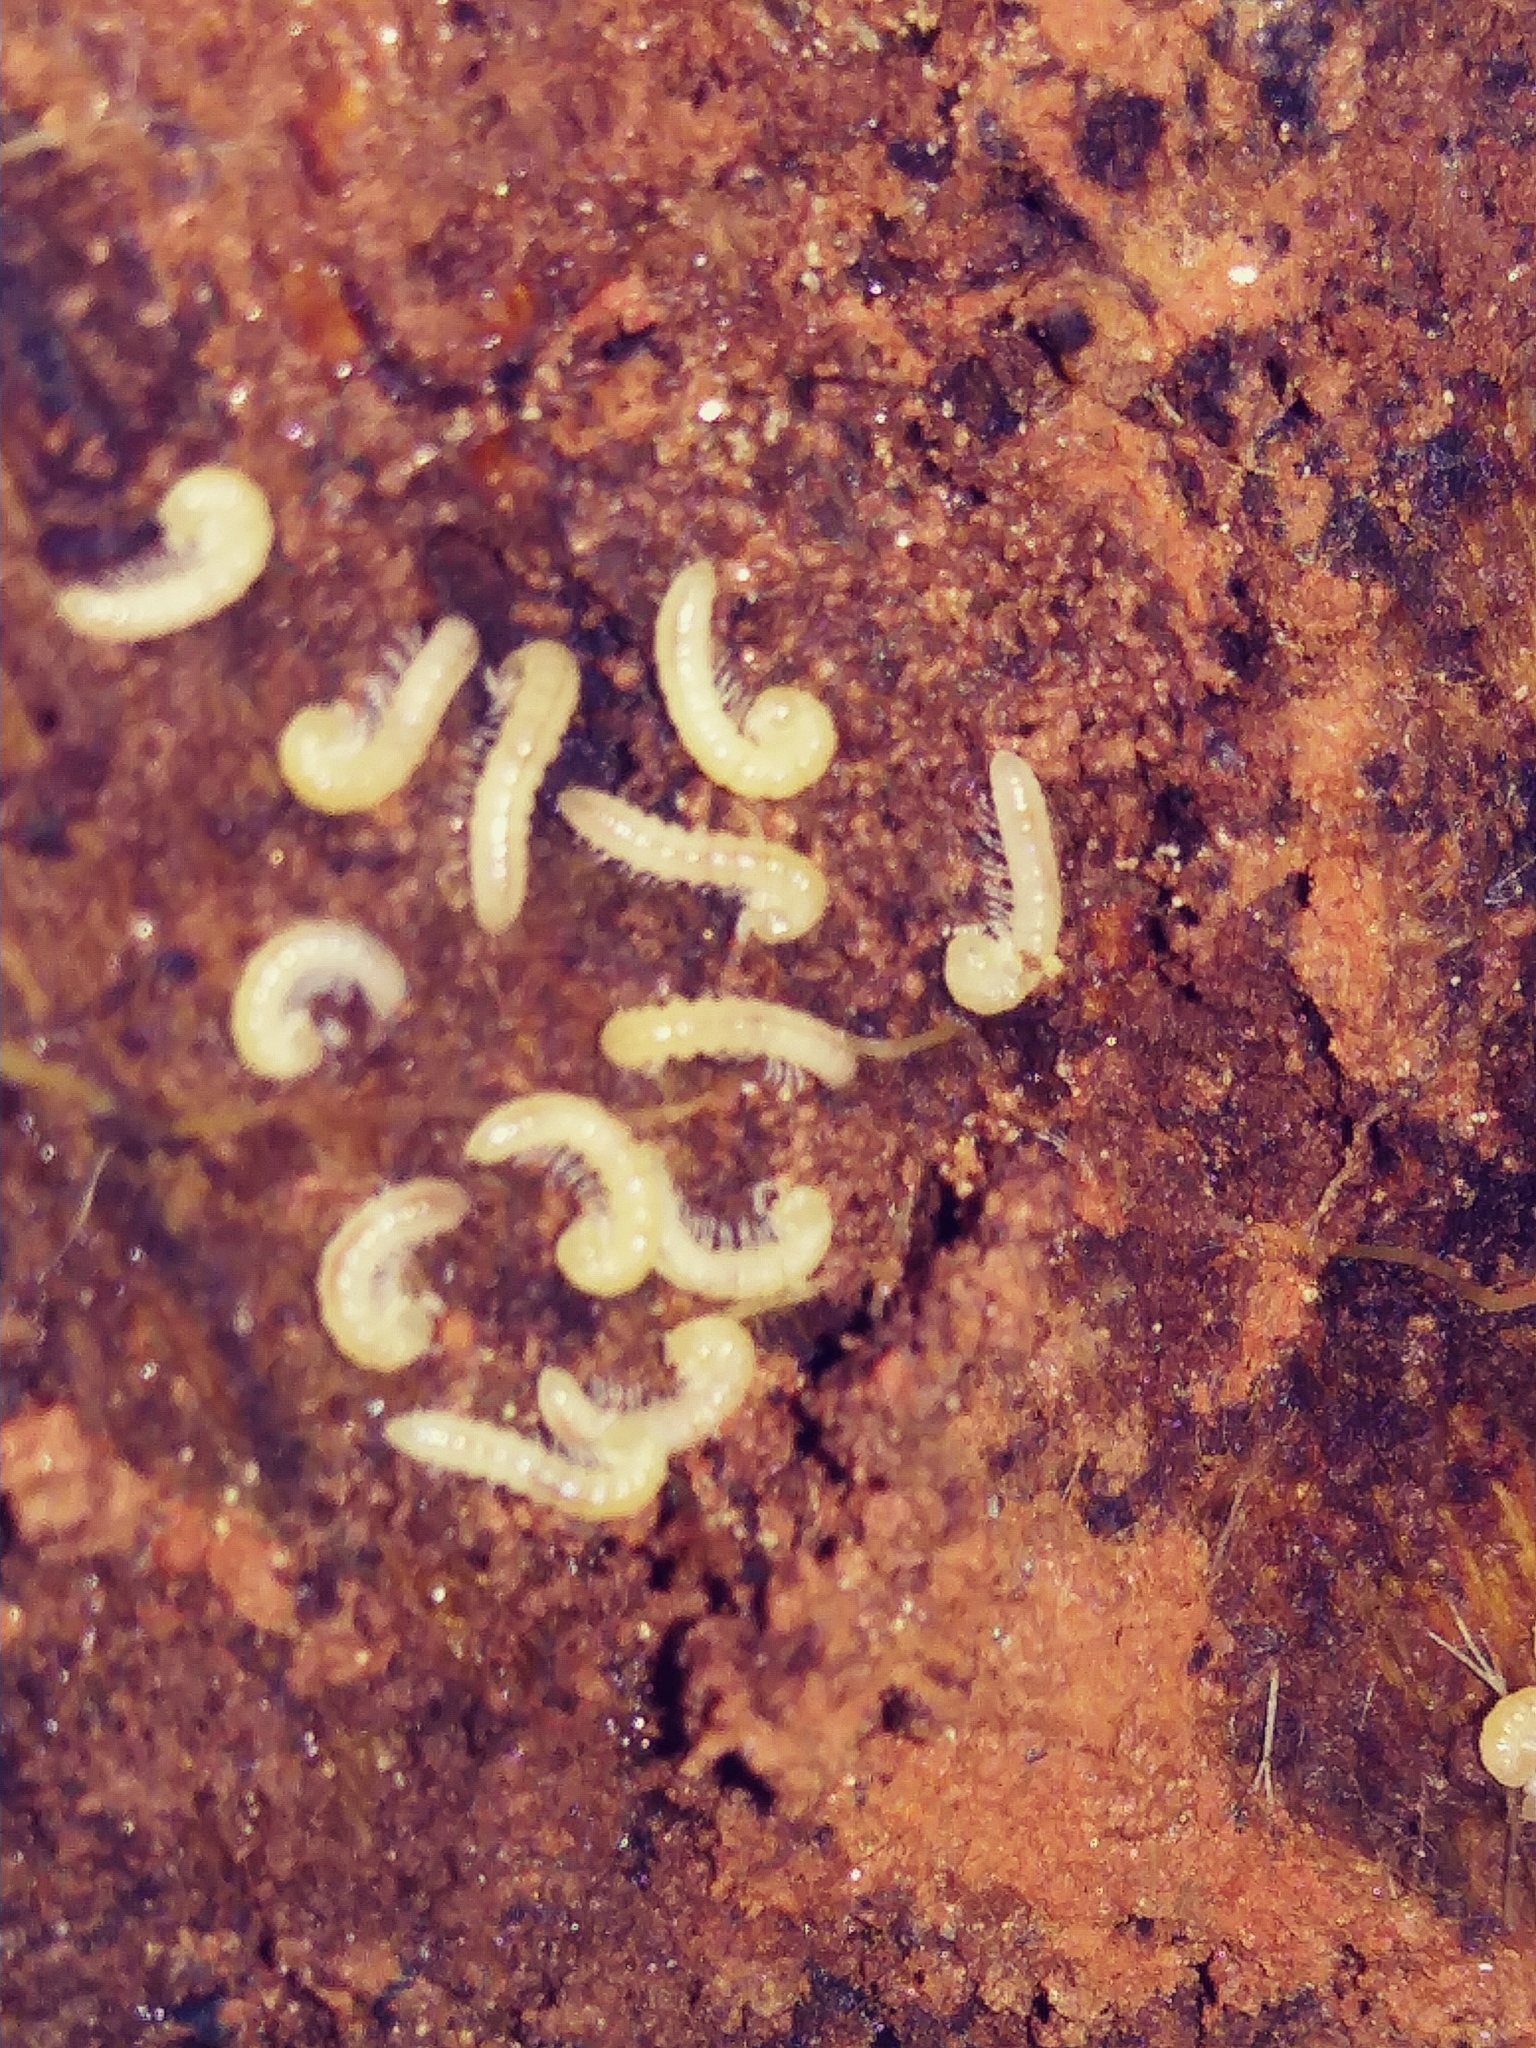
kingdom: Animalia
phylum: Arthropoda
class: Diplopoda
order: Polydesmida
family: Paradoxosomatidae
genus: Oxidus
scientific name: Oxidus gracilis
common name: Greenhouse millipede
